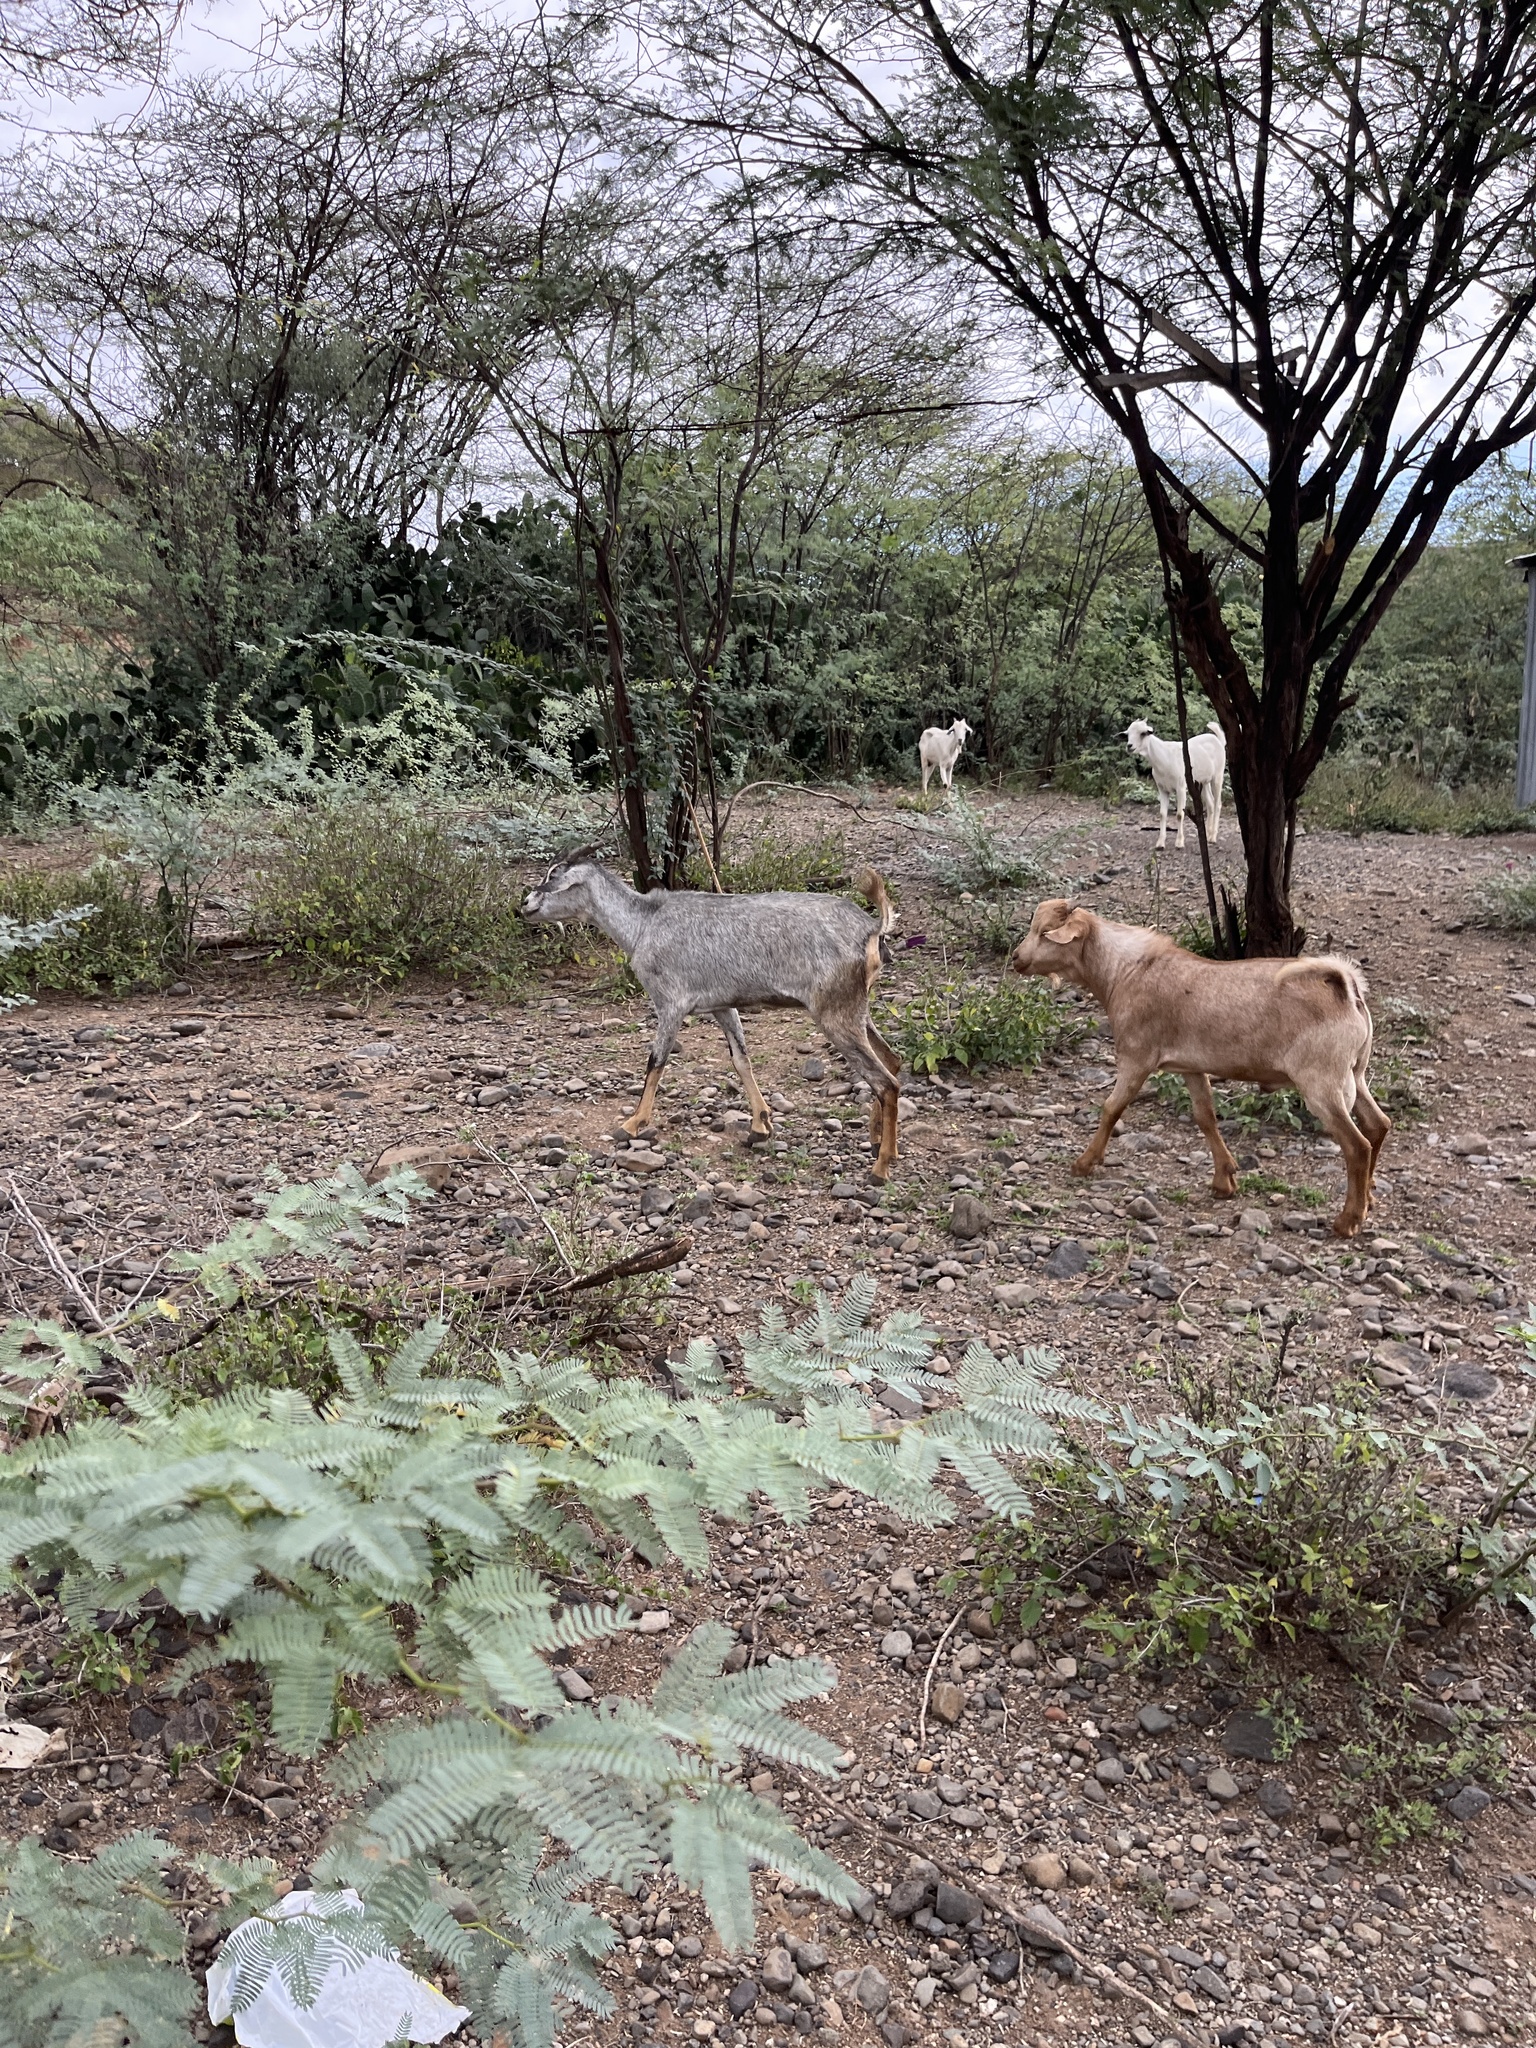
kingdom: Animalia
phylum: Chordata
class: Mammalia
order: Artiodactyla
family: Bovidae
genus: Capra
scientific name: Capra hircus
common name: Domestic goat
